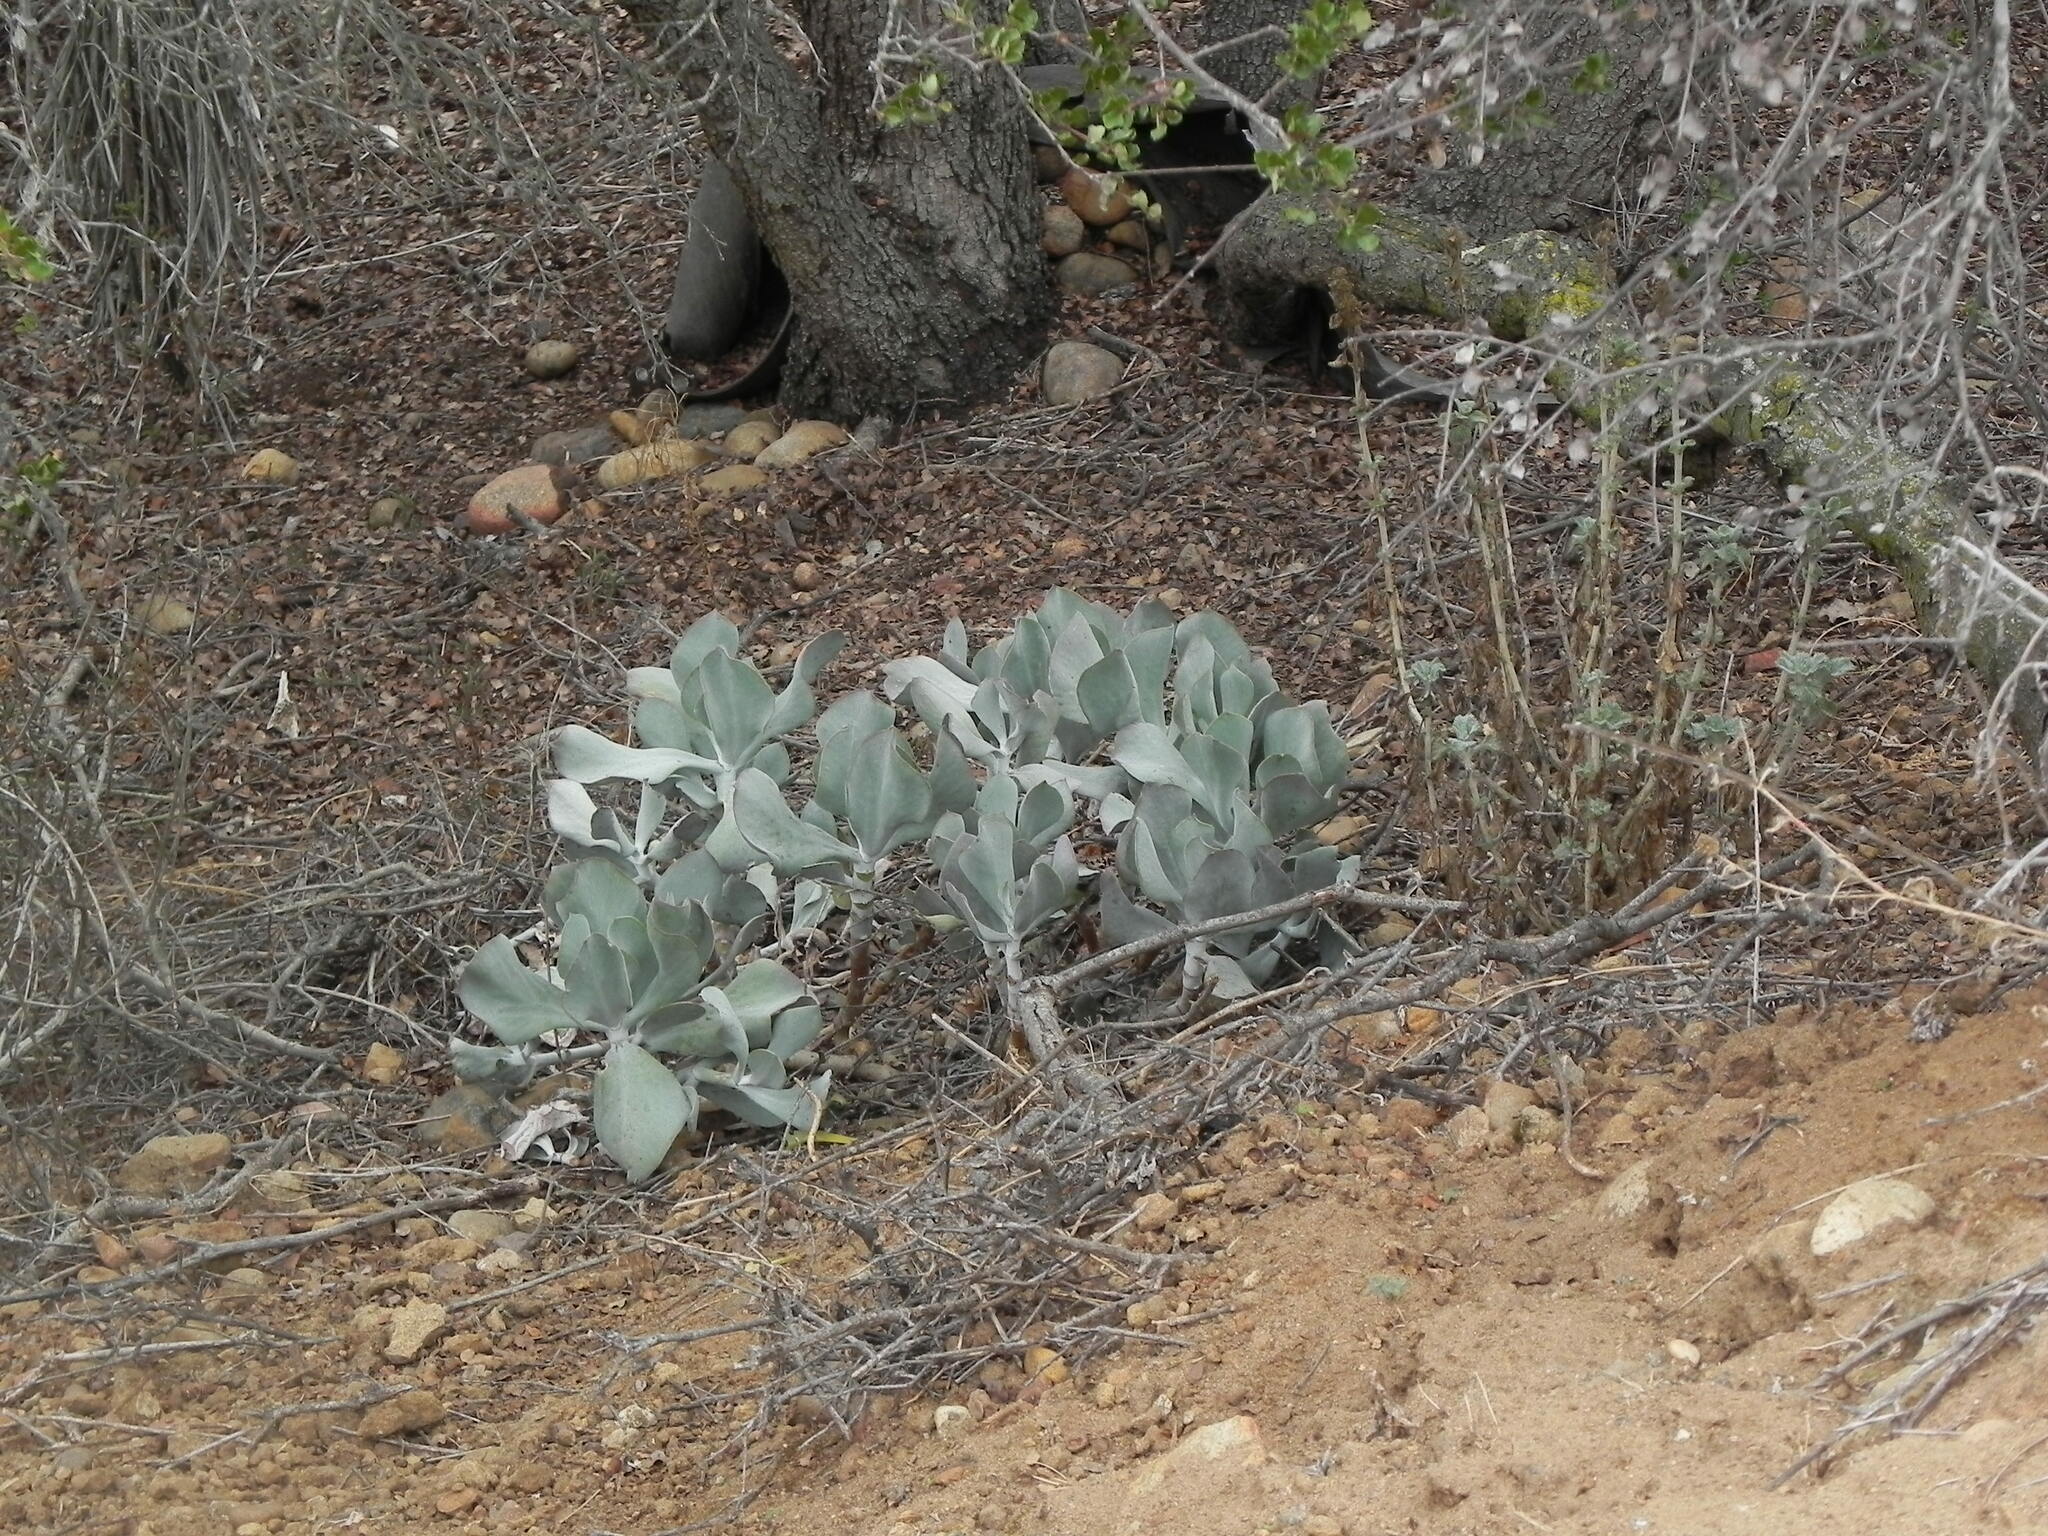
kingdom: Plantae
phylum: Tracheophyta
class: Magnoliopsida
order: Saxifragales
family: Crassulaceae
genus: Cotyledon
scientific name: Cotyledon orbiculata
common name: Pig's ear
